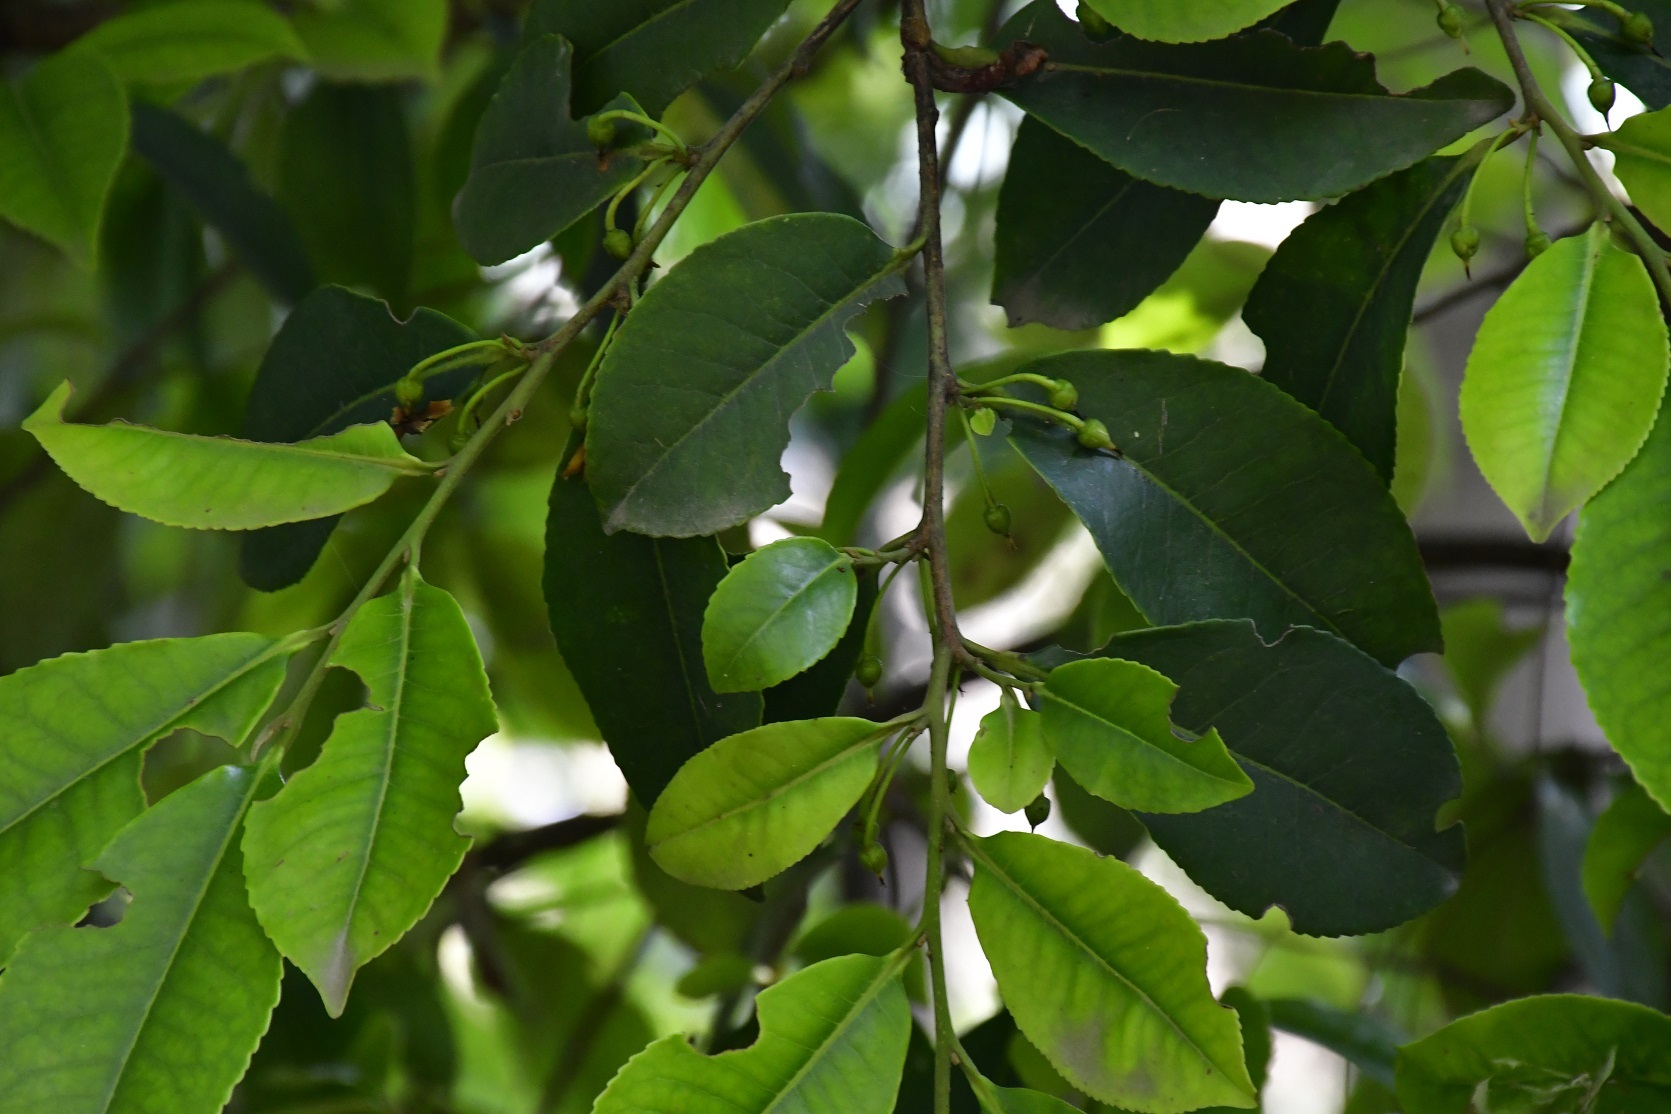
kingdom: Plantae
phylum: Tracheophyta
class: Magnoliopsida
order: Ericales
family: Pentaphylacaceae
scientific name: Pentaphylacaceae
